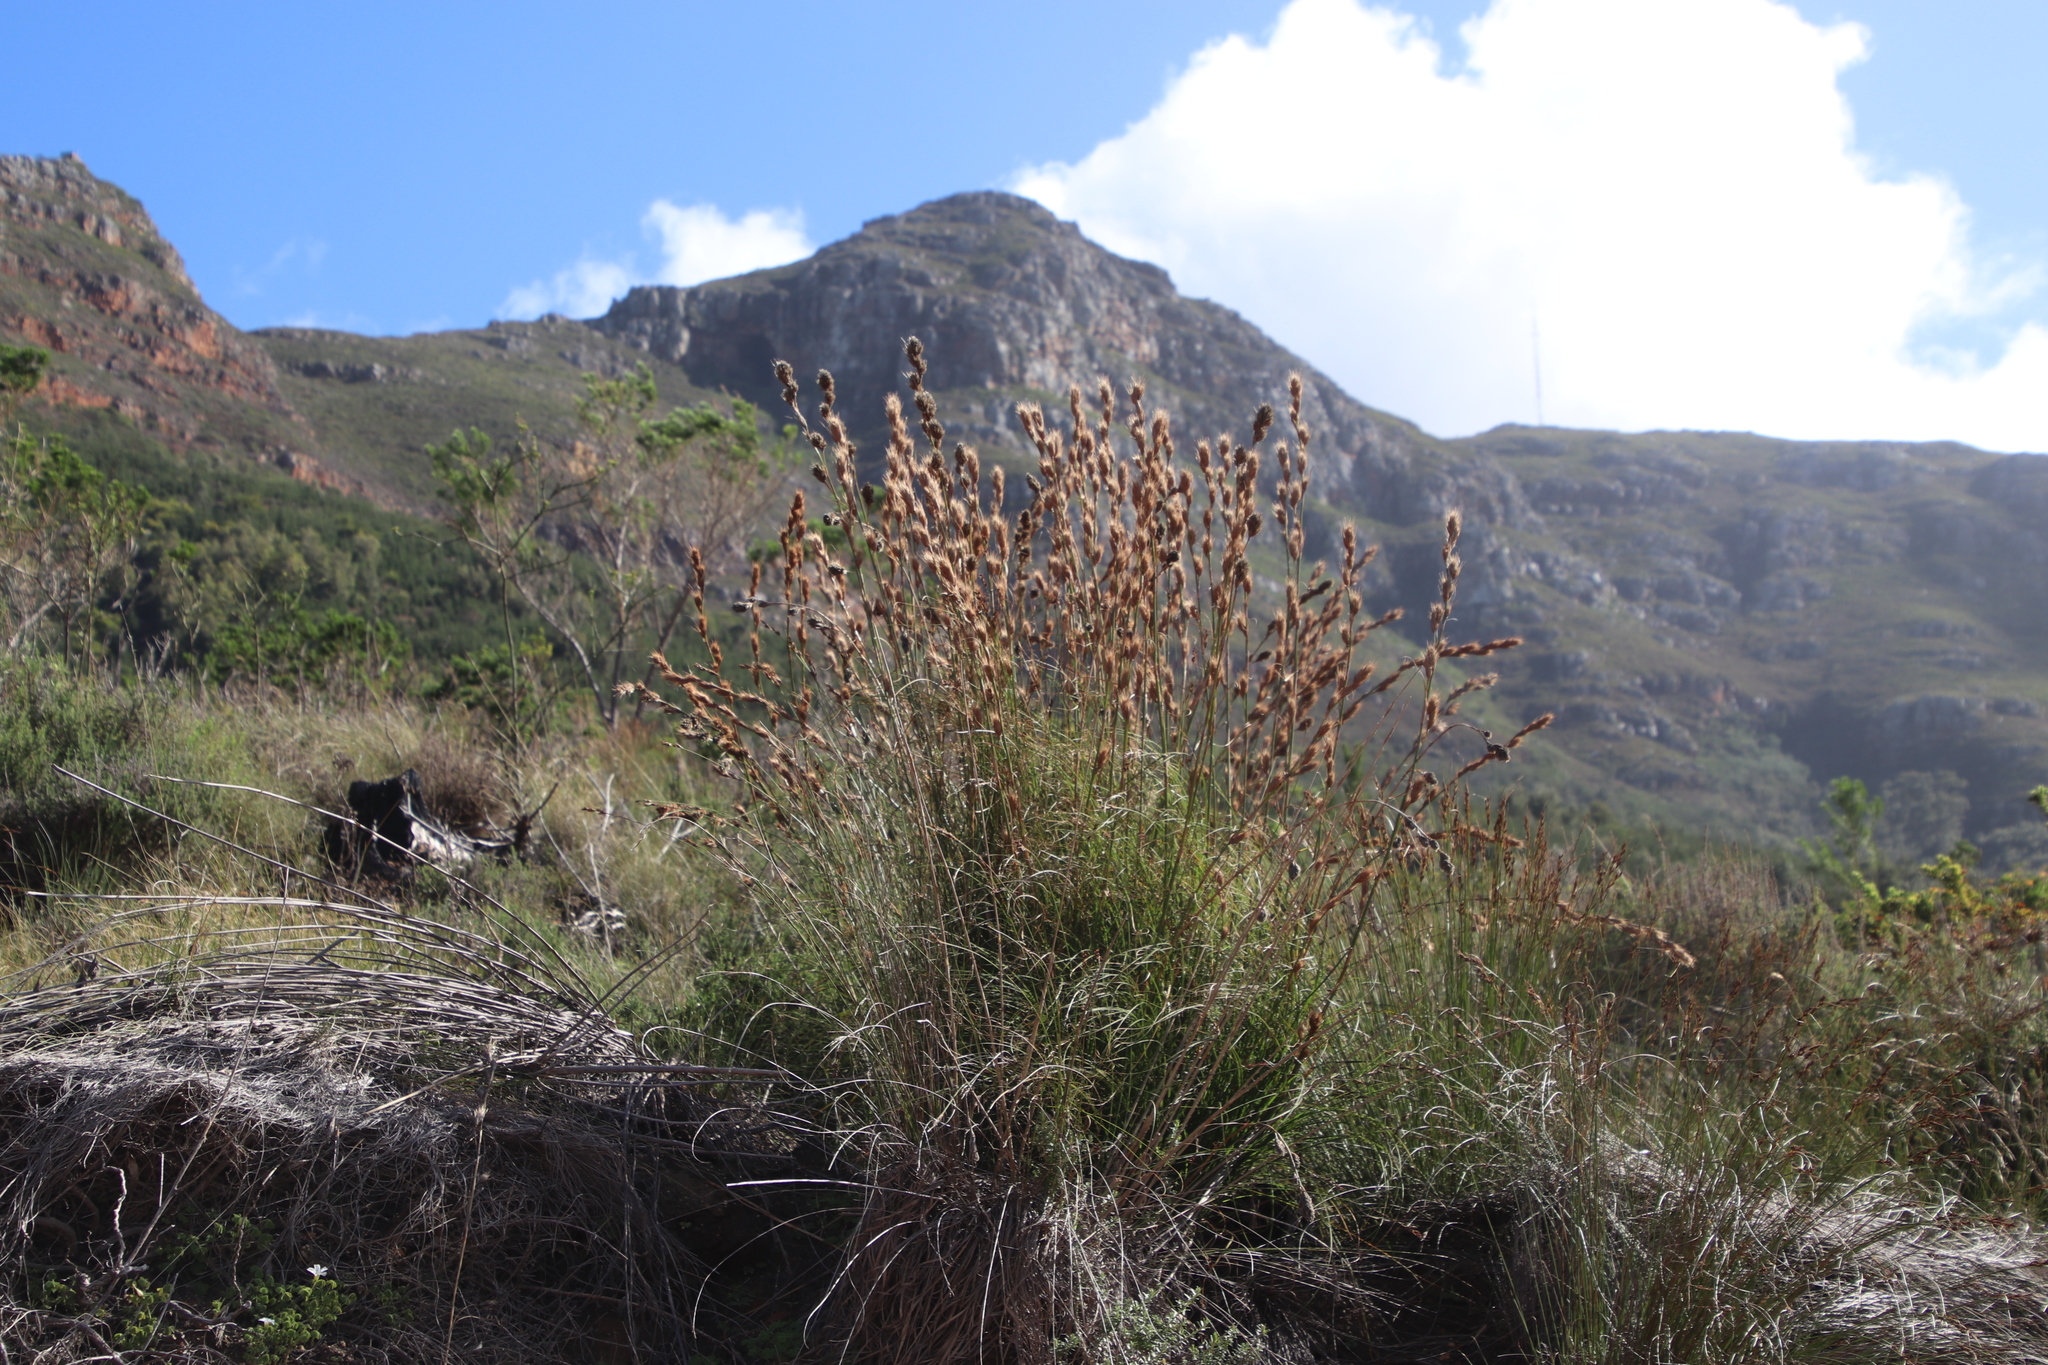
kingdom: Plantae
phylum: Tracheophyta
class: Liliopsida
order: Poales
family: Cyperaceae
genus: Tetraria
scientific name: Tetraria bromoides
